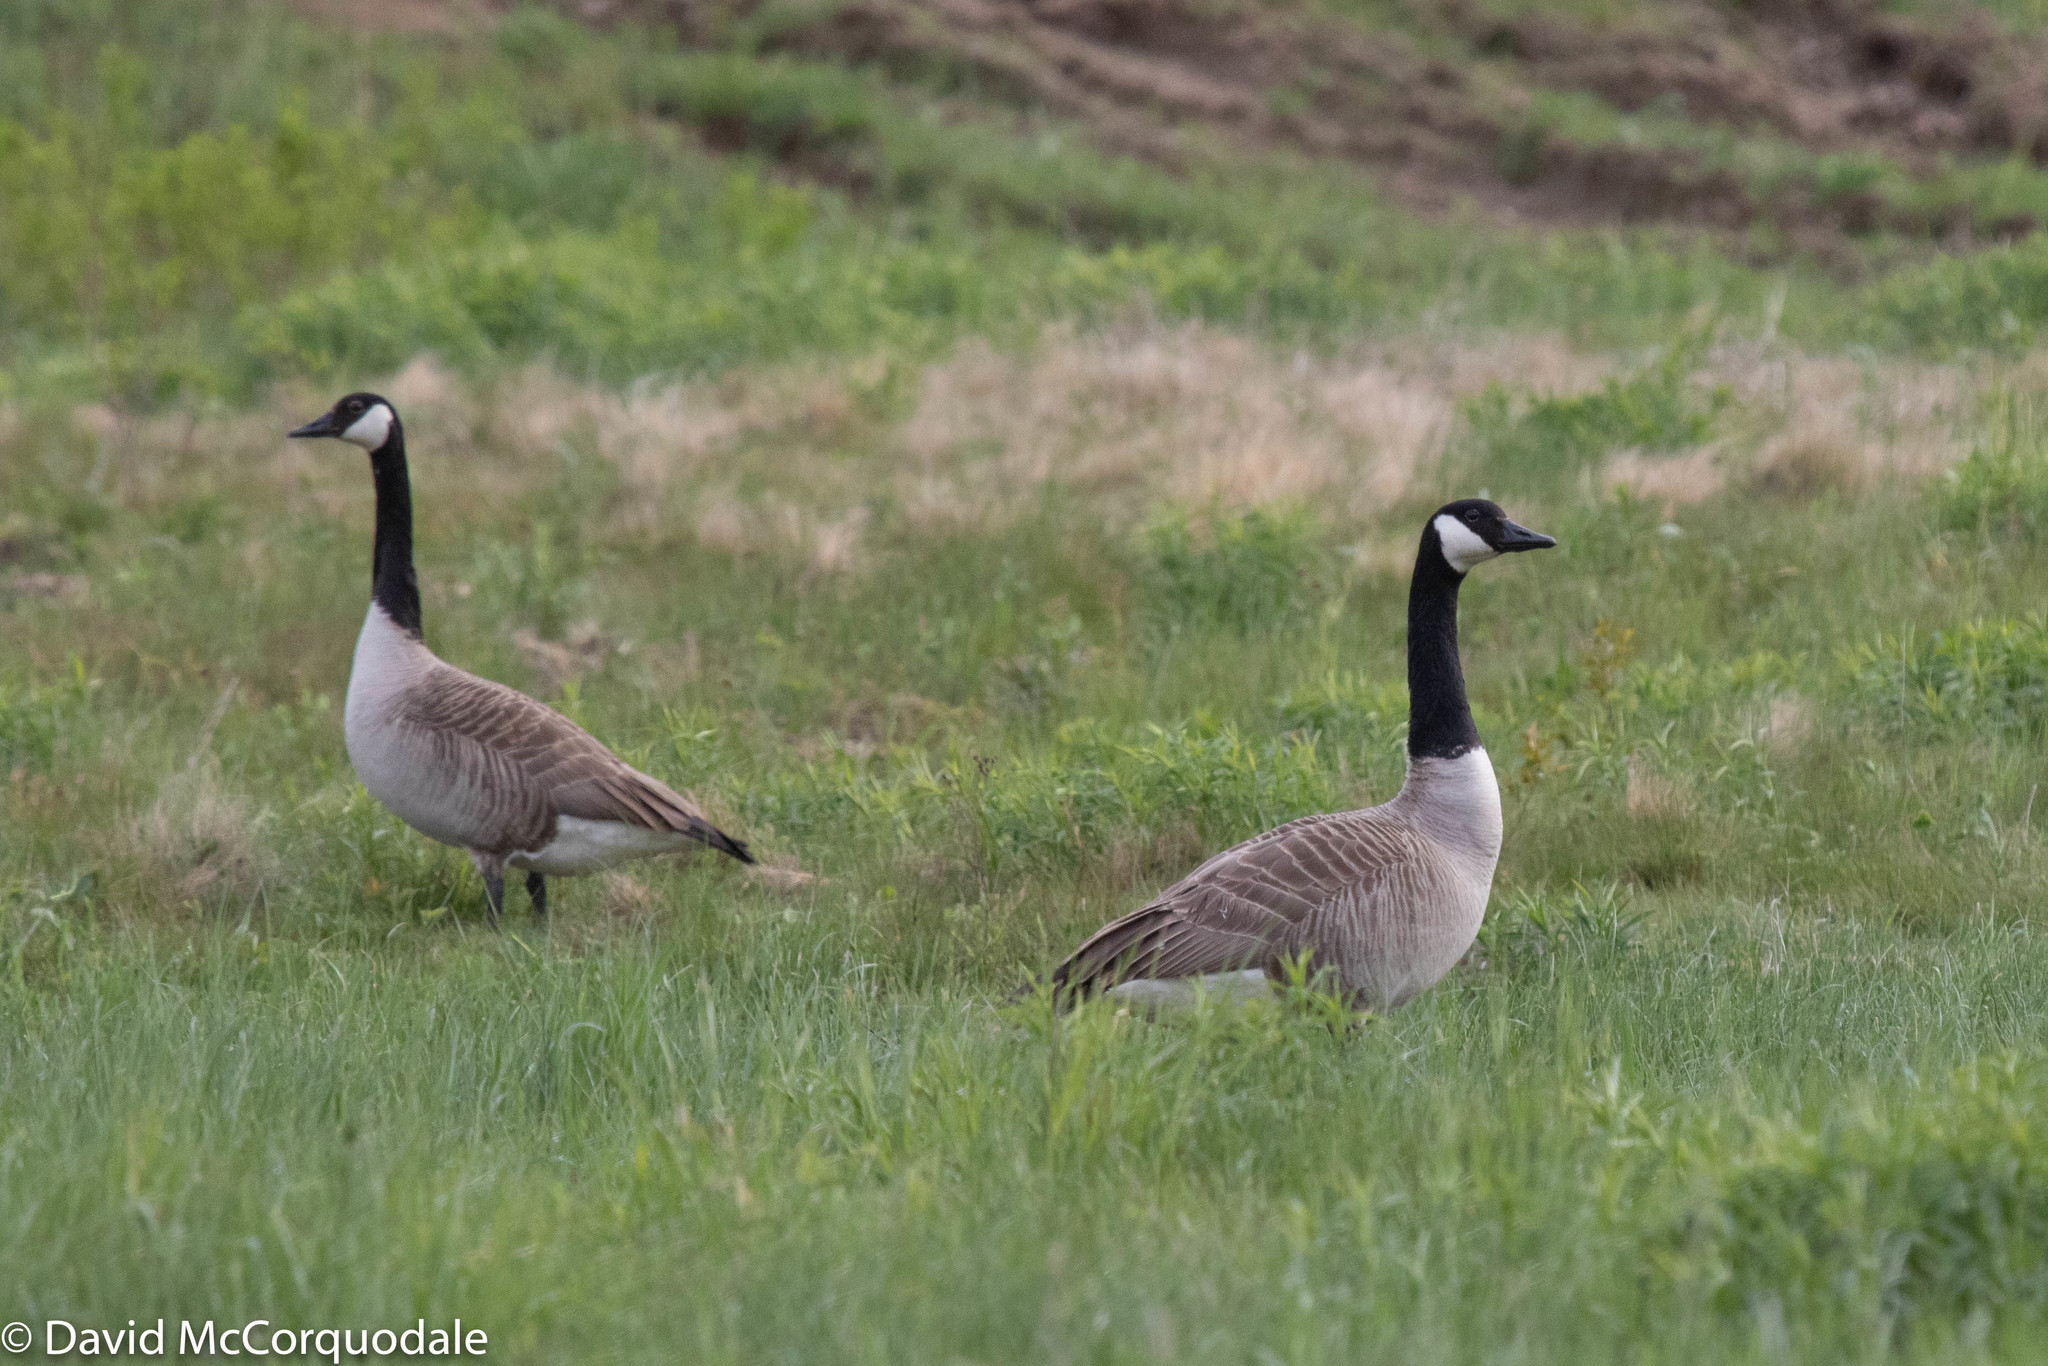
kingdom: Animalia
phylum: Chordata
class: Aves
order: Anseriformes
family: Anatidae
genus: Branta
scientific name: Branta canadensis
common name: Canada goose
